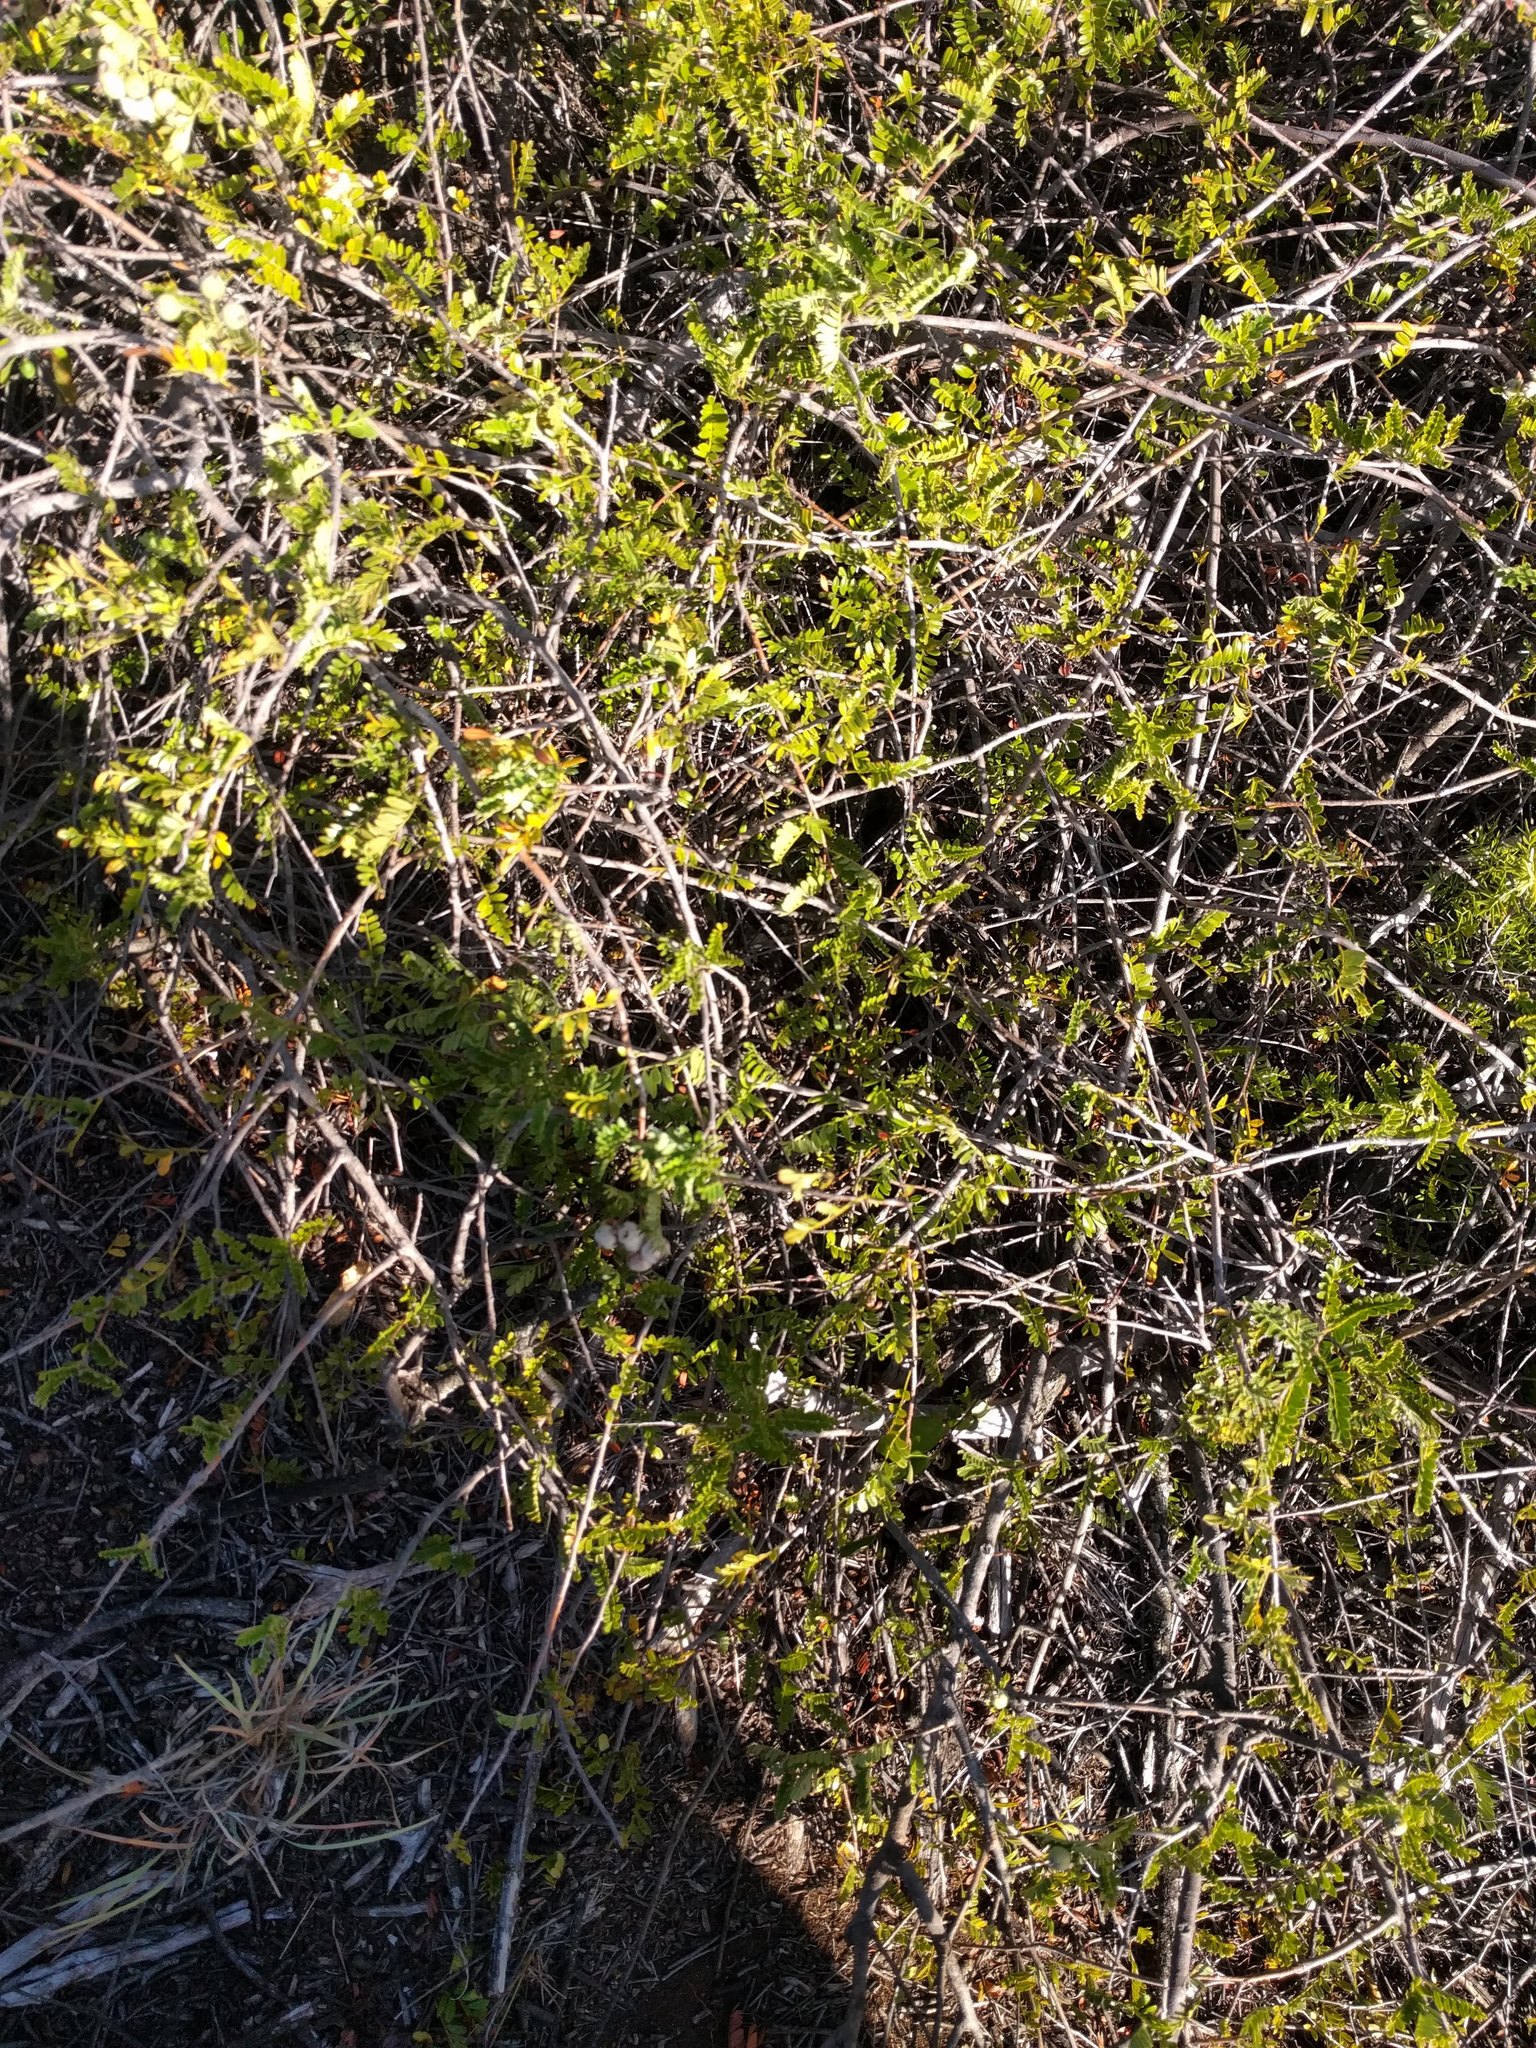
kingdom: Plantae
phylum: Tracheophyta
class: Magnoliopsida
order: Rosales
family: Rosaceae
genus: Osteomeles
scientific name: Osteomeles anthyllidifolia
